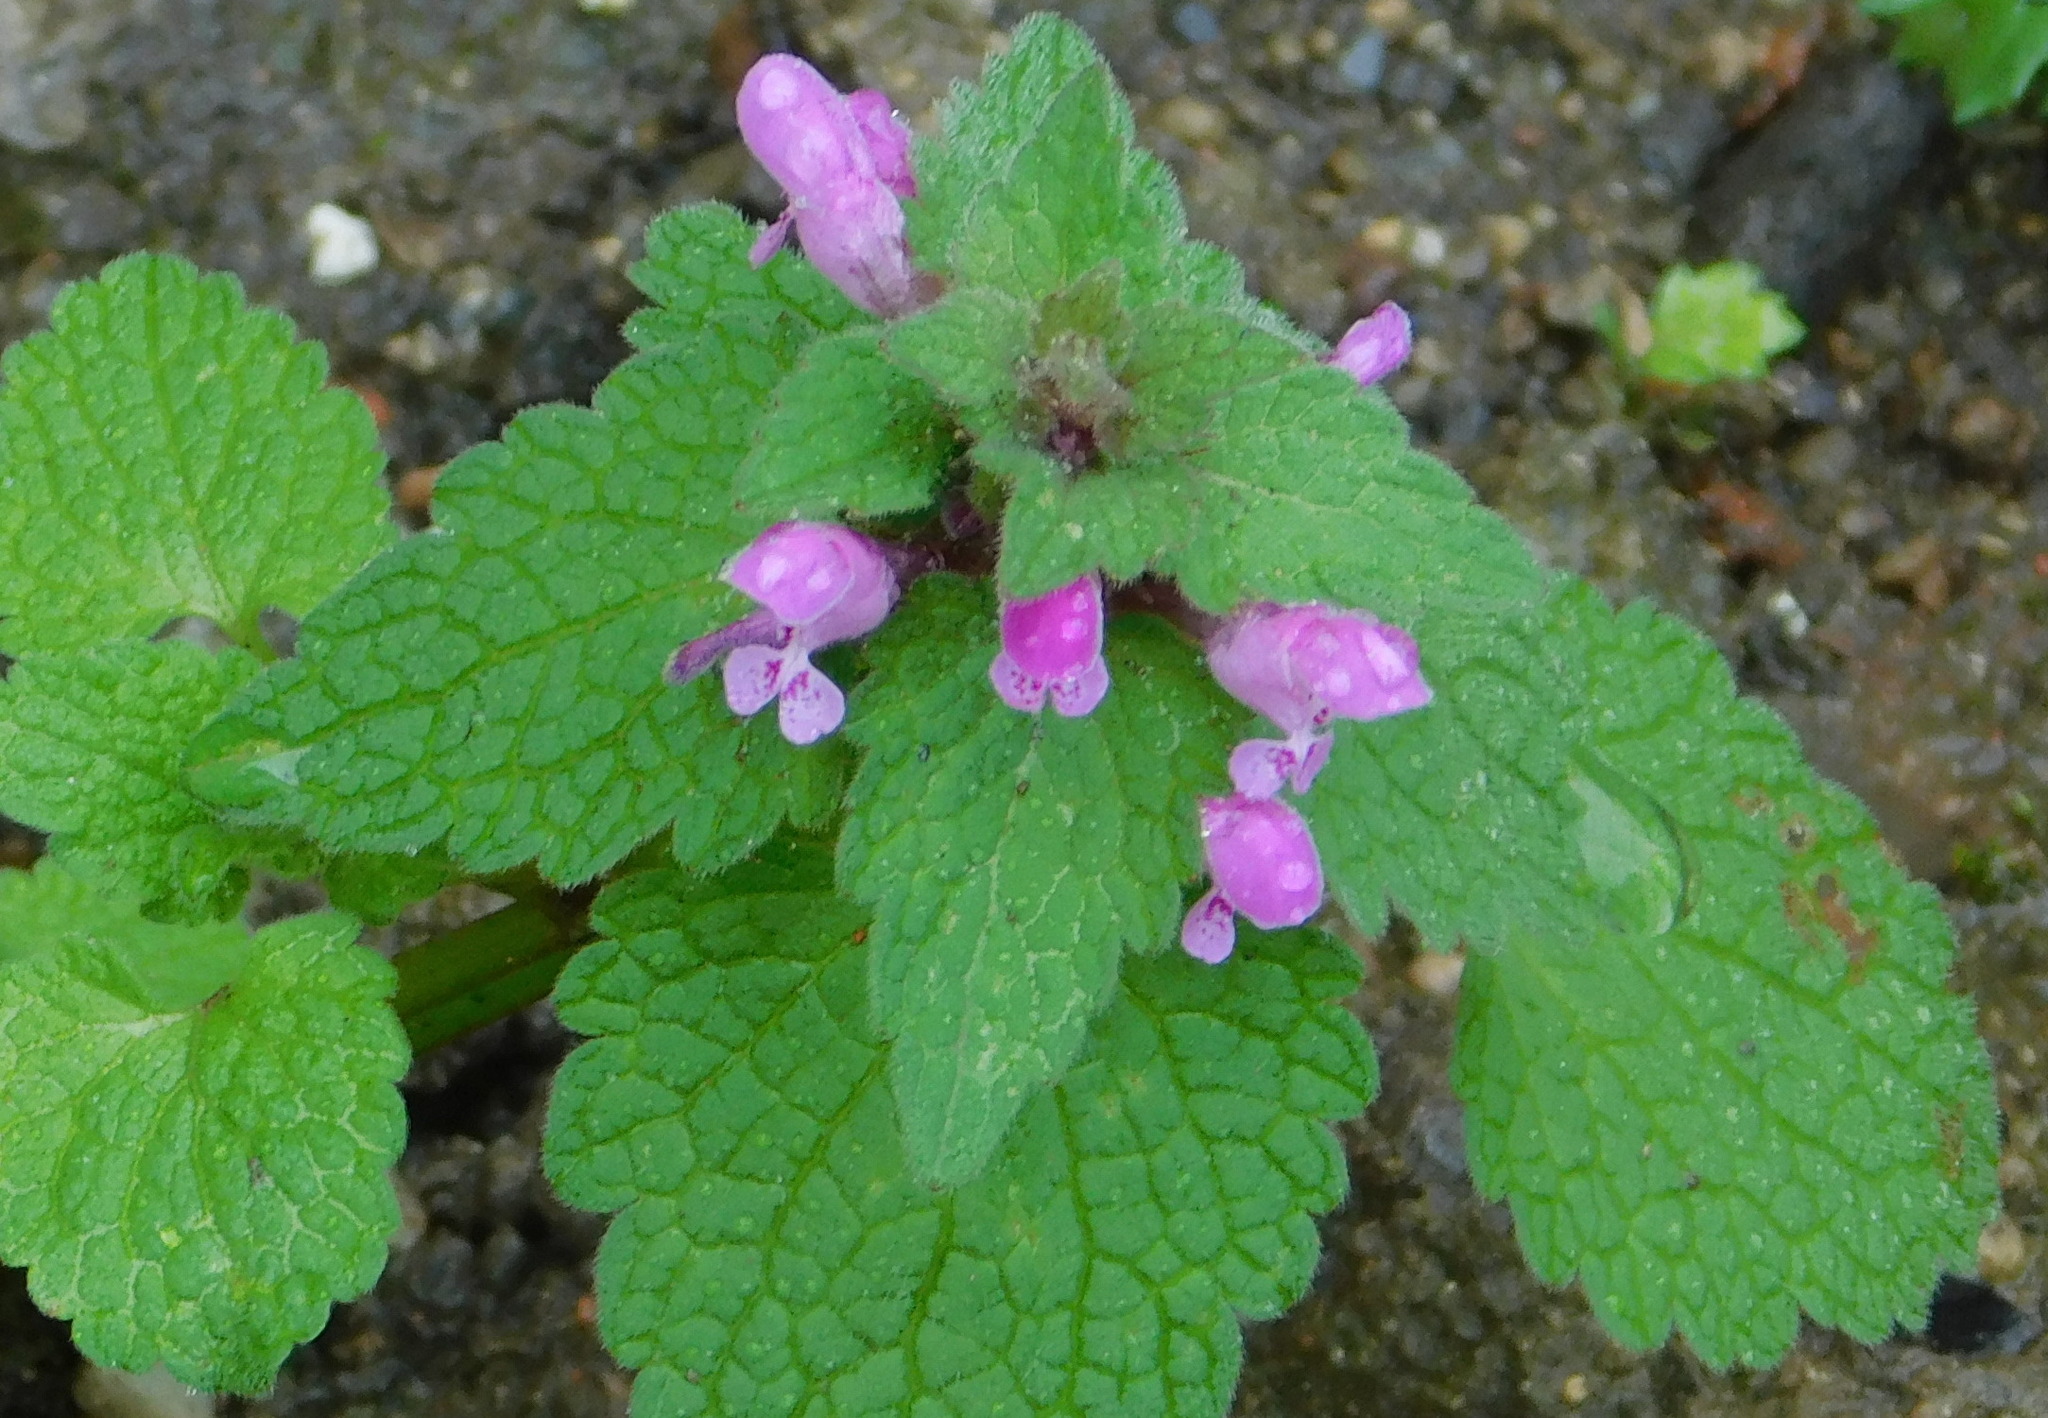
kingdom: Plantae
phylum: Tracheophyta
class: Magnoliopsida
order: Lamiales
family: Lamiaceae
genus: Lamium
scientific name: Lamium purpureum
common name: Red dead-nettle
